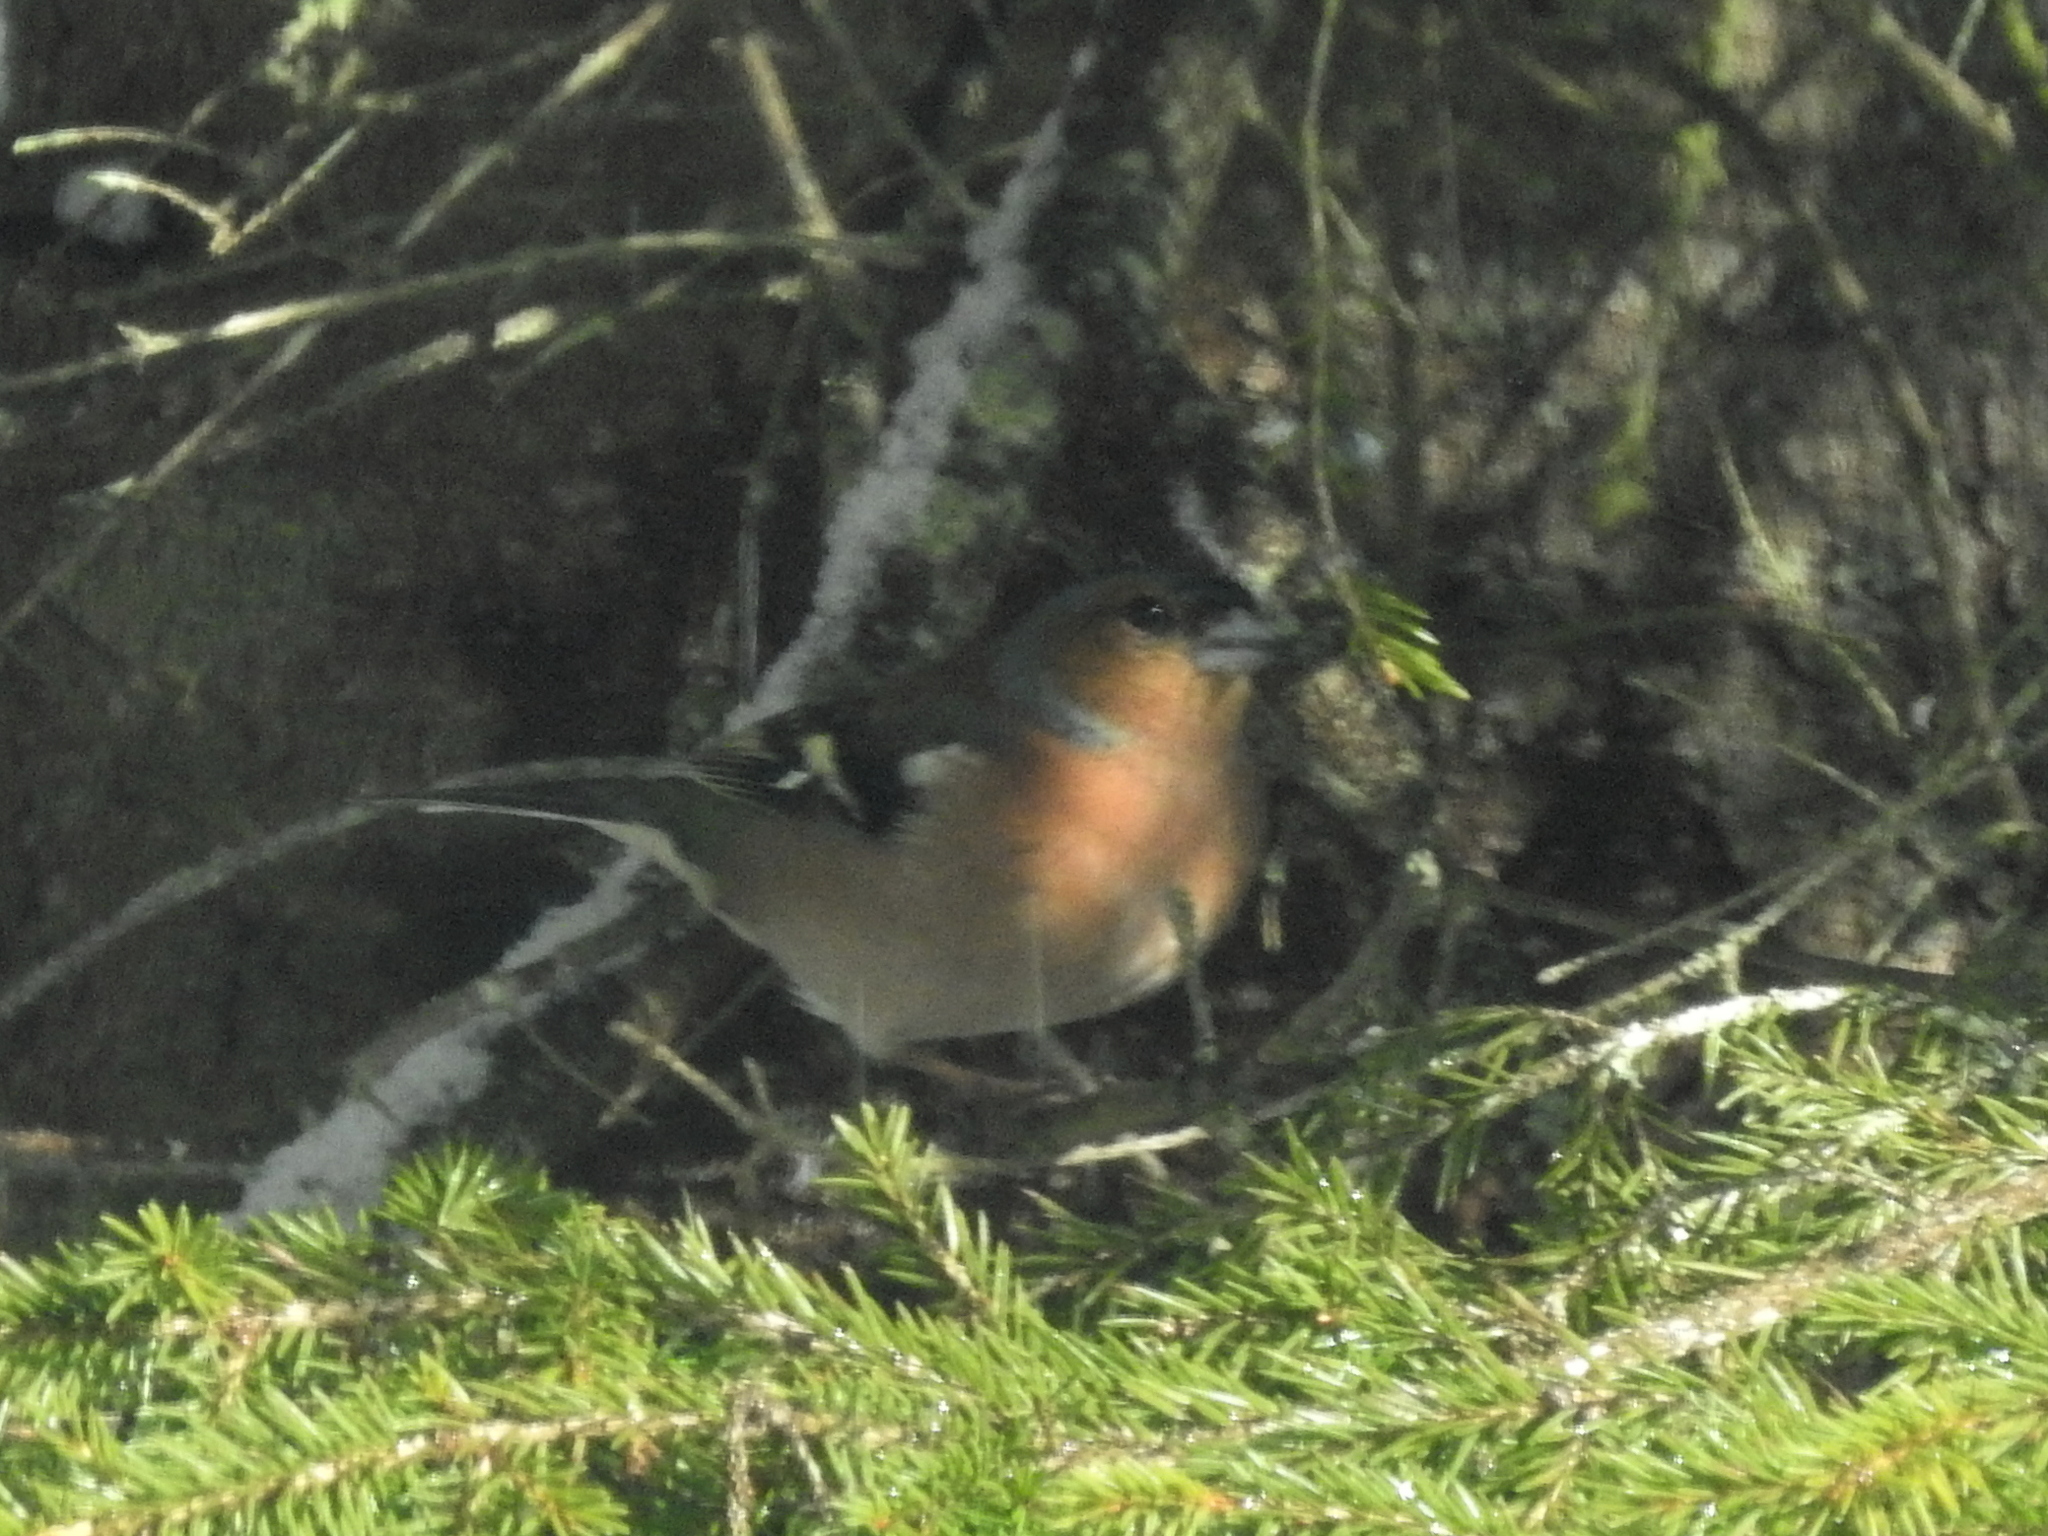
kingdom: Animalia
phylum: Chordata
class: Aves
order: Passeriformes
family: Fringillidae
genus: Fringilla
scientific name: Fringilla coelebs
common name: Common chaffinch
